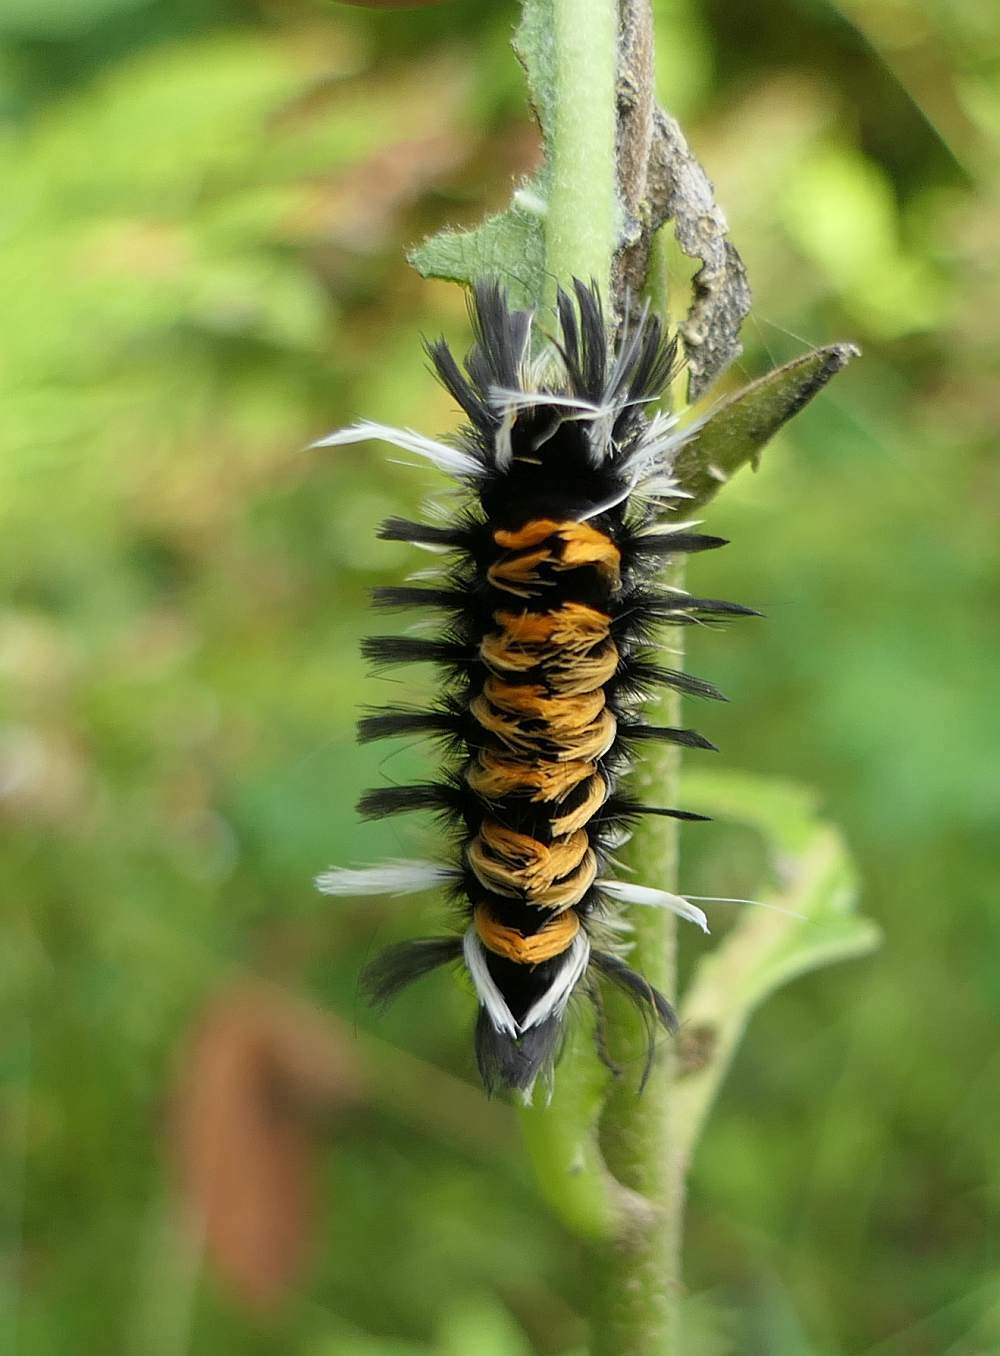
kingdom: Animalia
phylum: Arthropoda
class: Insecta
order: Lepidoptera
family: Erebidae
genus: Euchaetes
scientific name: Euchaetes egle
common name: Milkweed tussock moth
